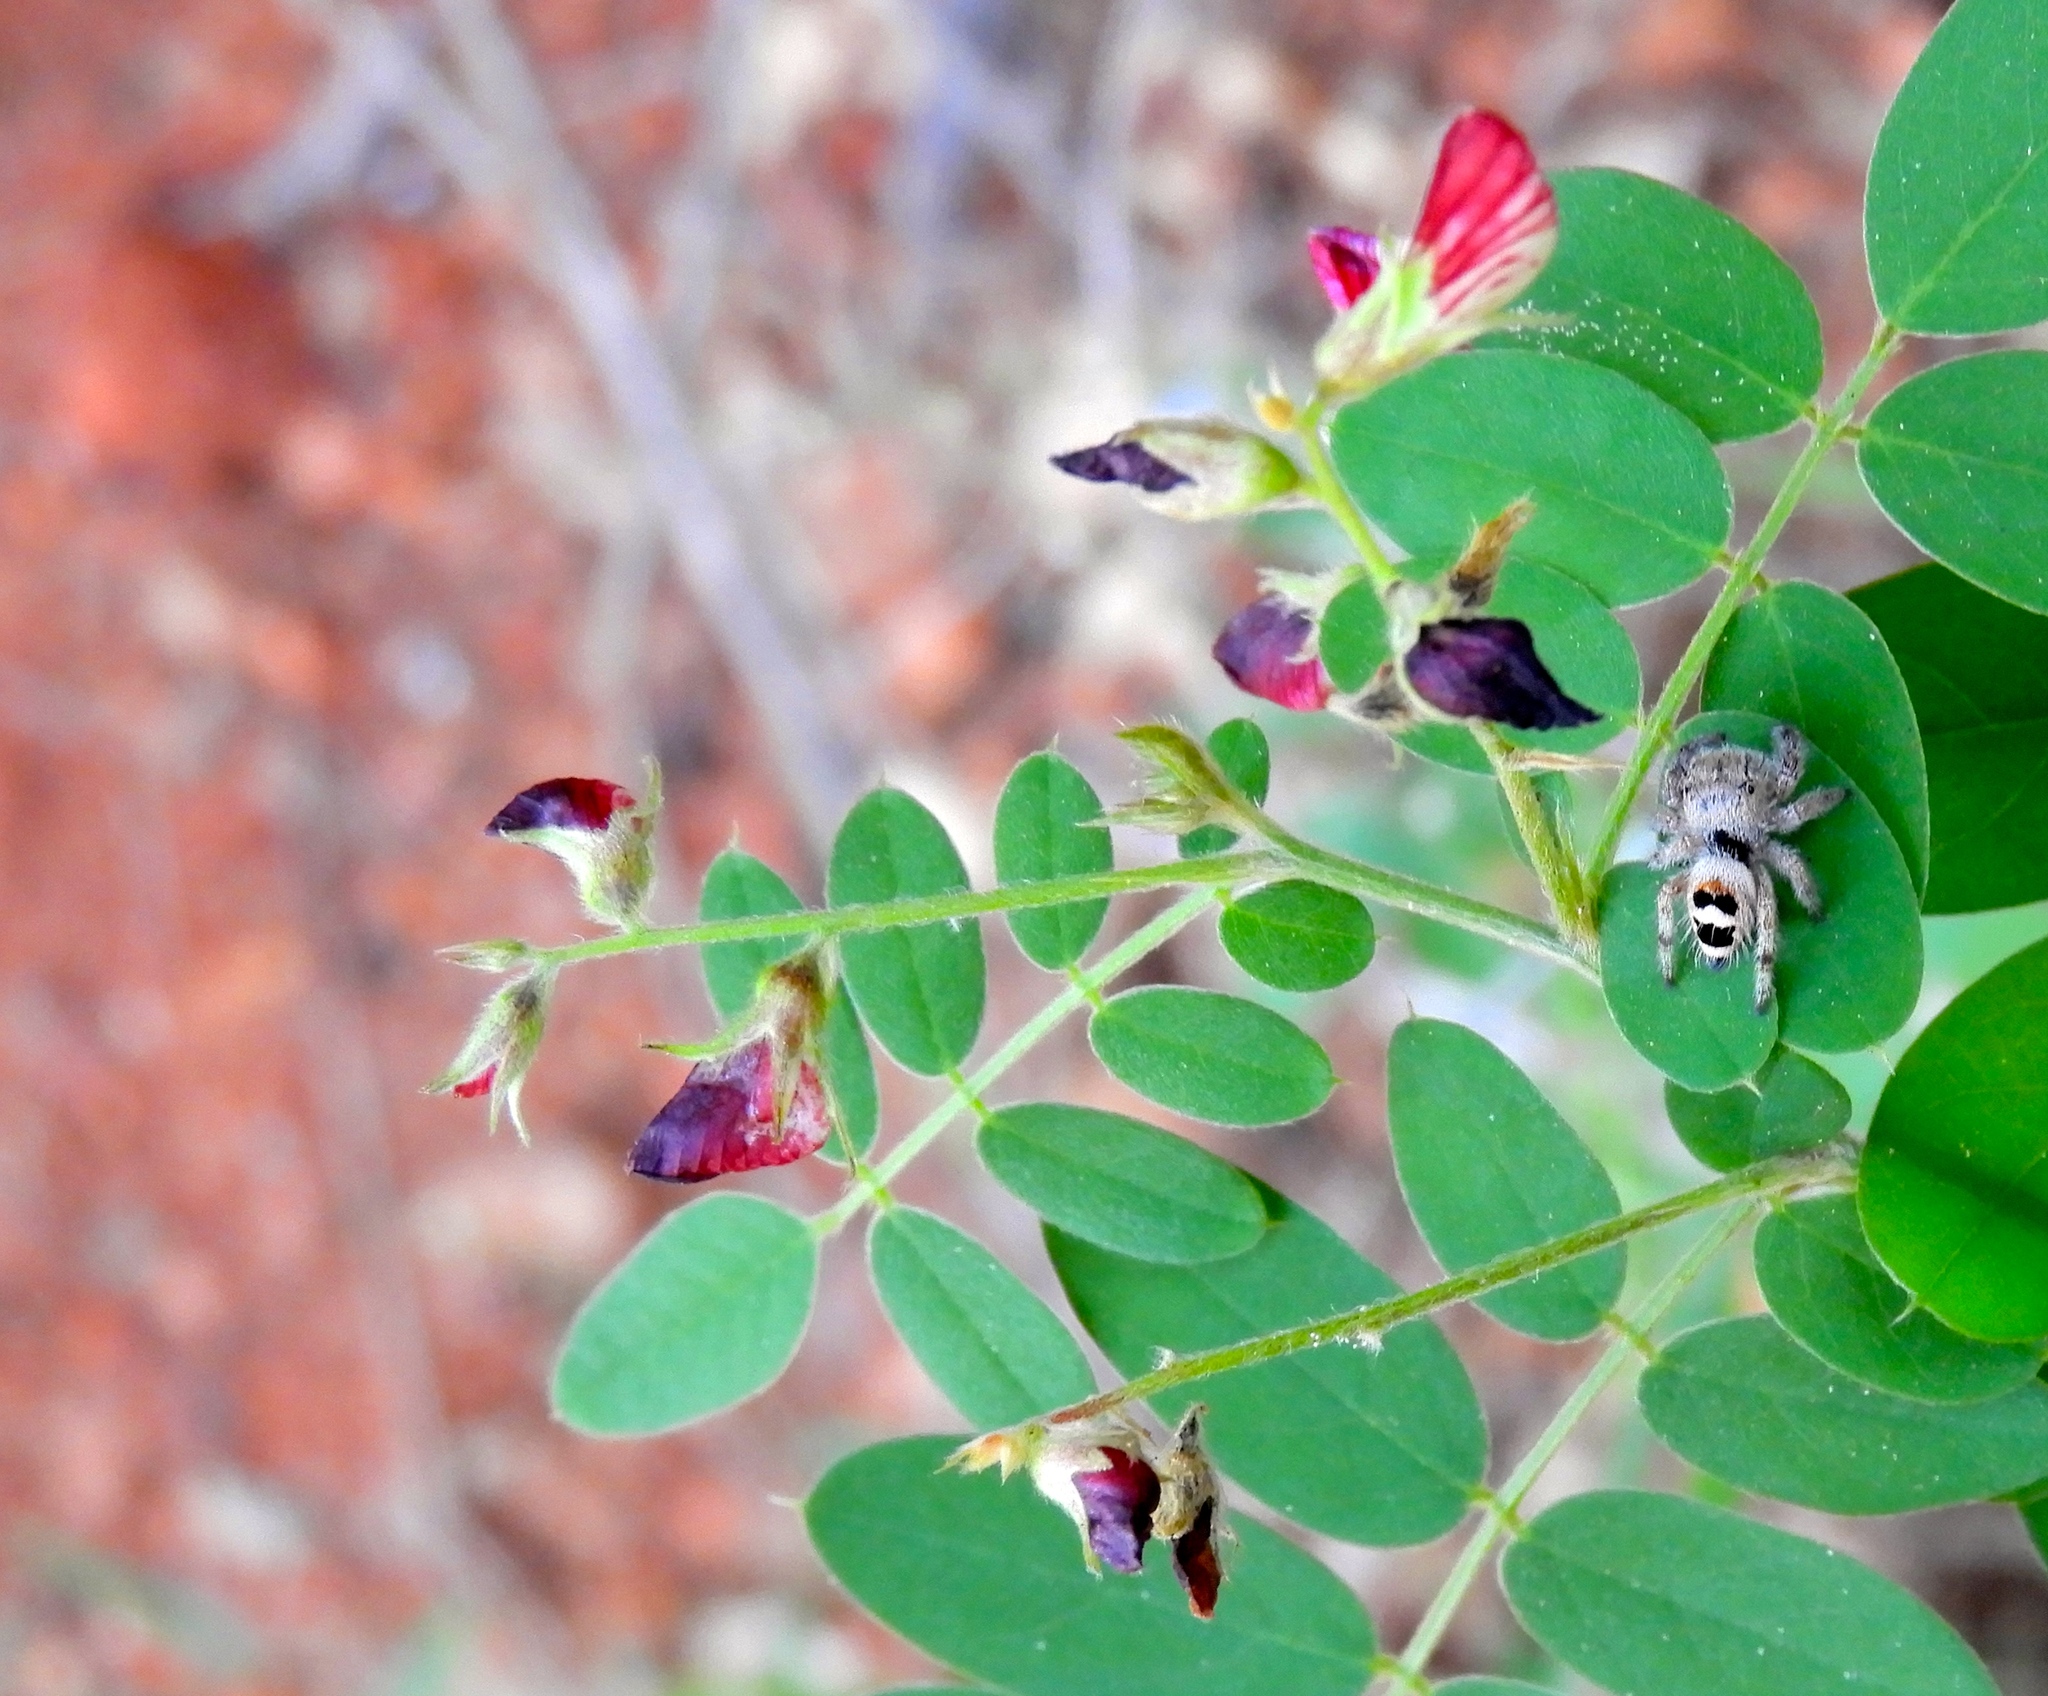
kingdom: Animalia
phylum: Arthropoda
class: Arachnida
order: Araneae
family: Salticidae
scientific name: Salticidae
